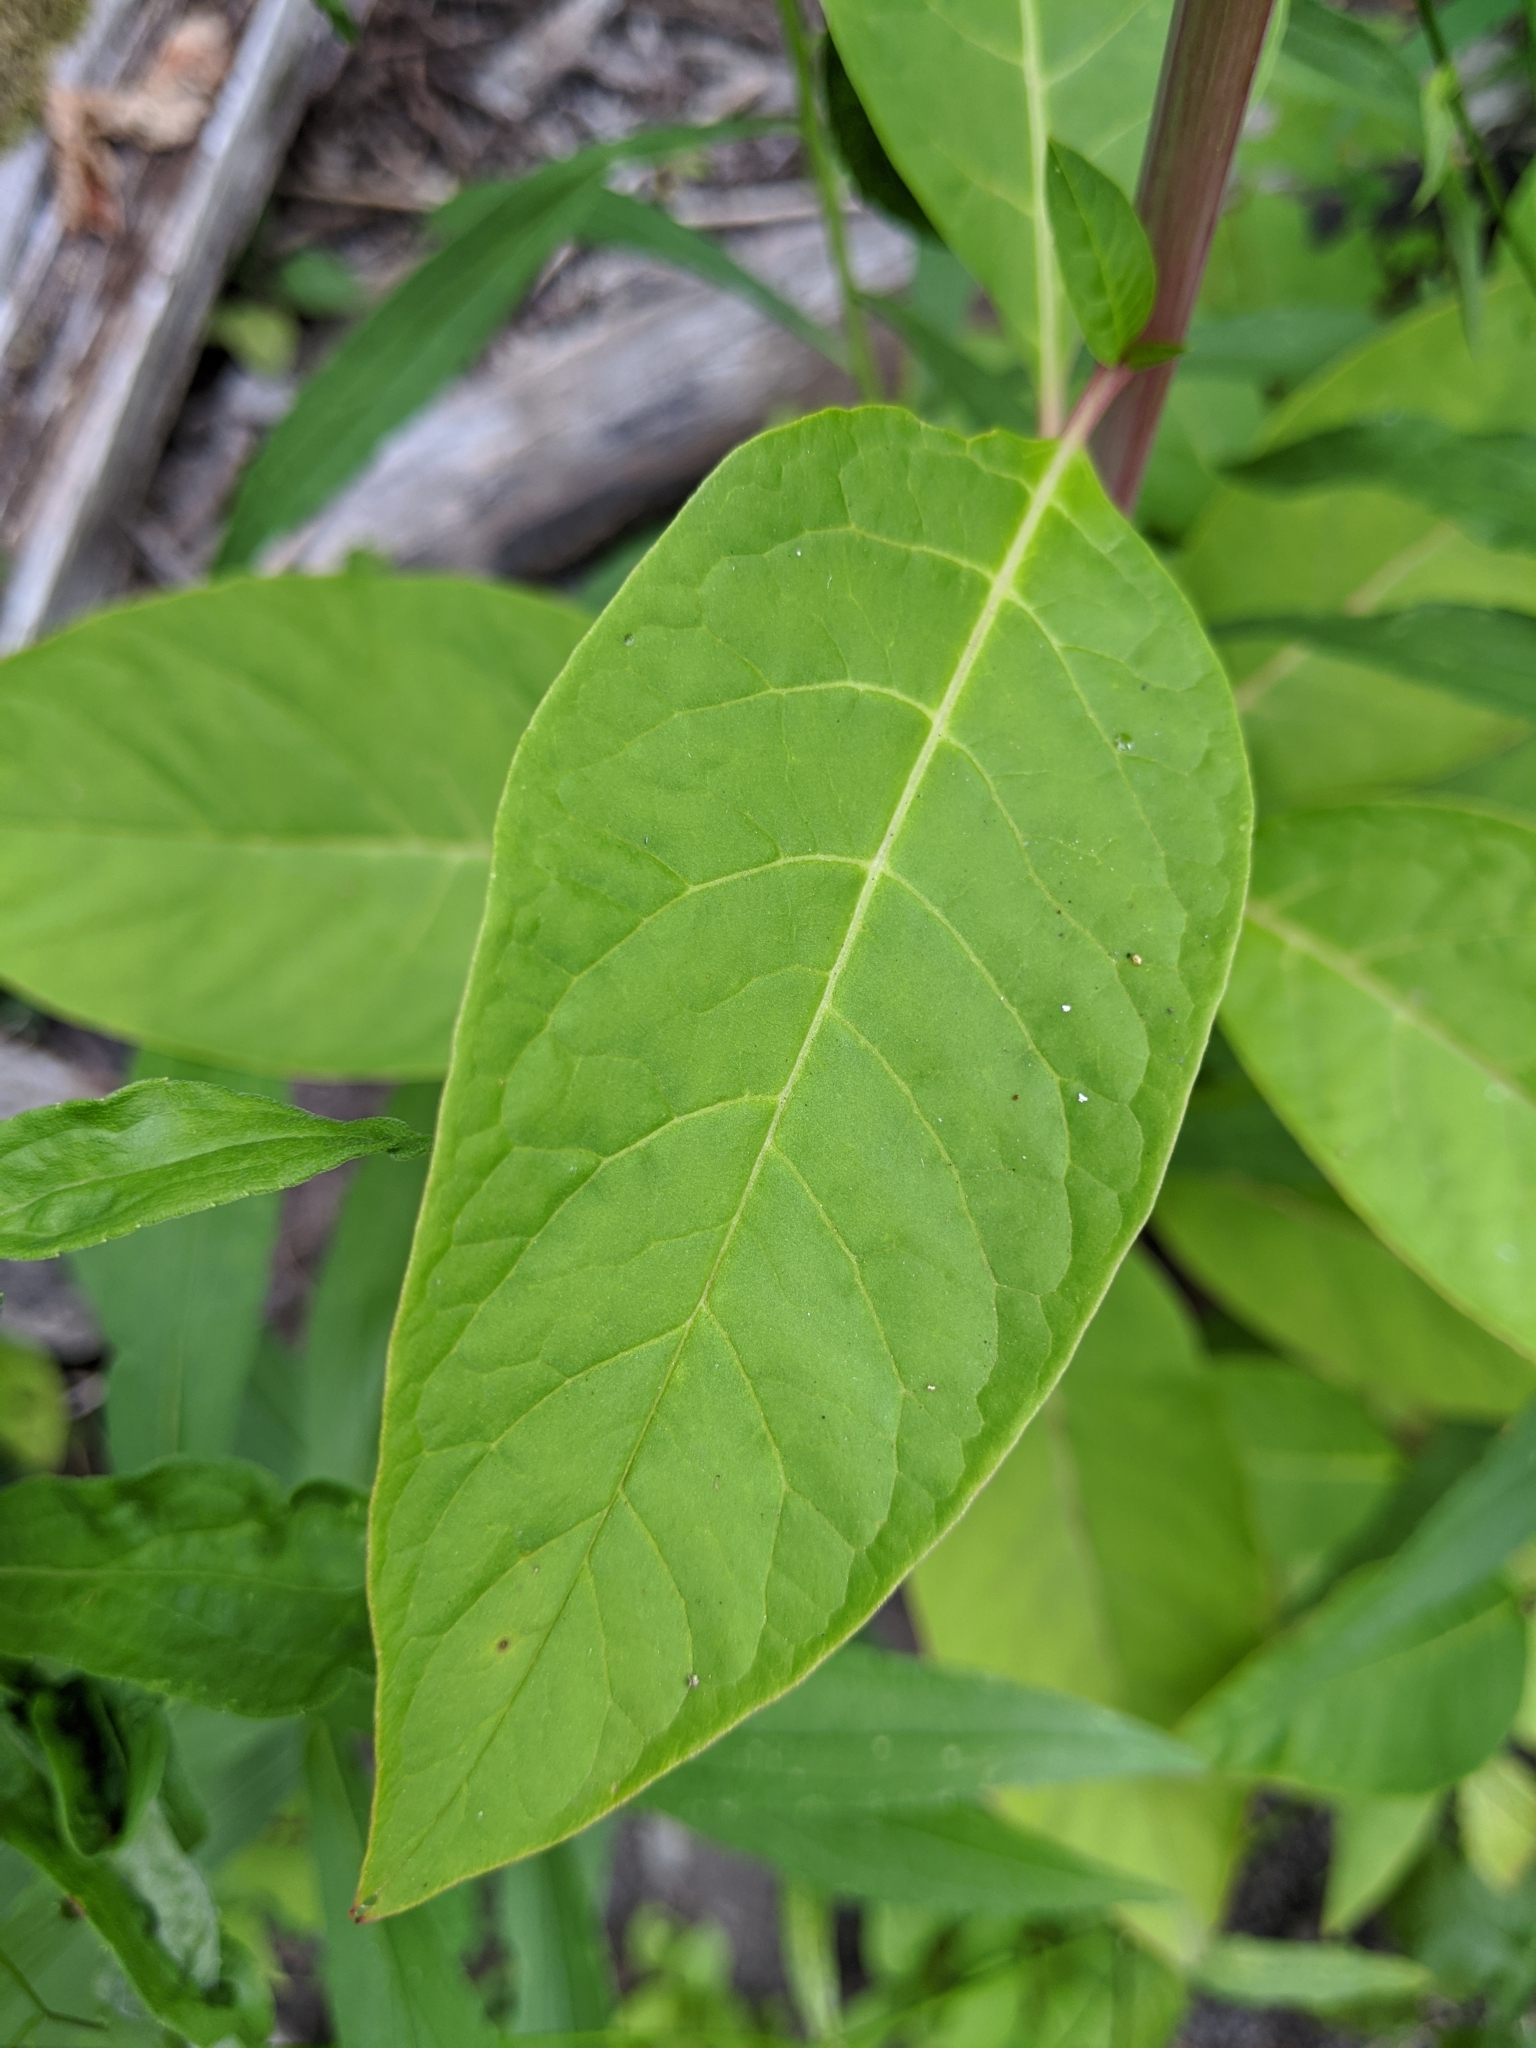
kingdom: Plantae
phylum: Tracheophyta
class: Magnoliopsida
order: Caryophyllales
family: Phytolaccaceae
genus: Phytolacca
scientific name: Phytolacca americana
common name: American pokeweed
